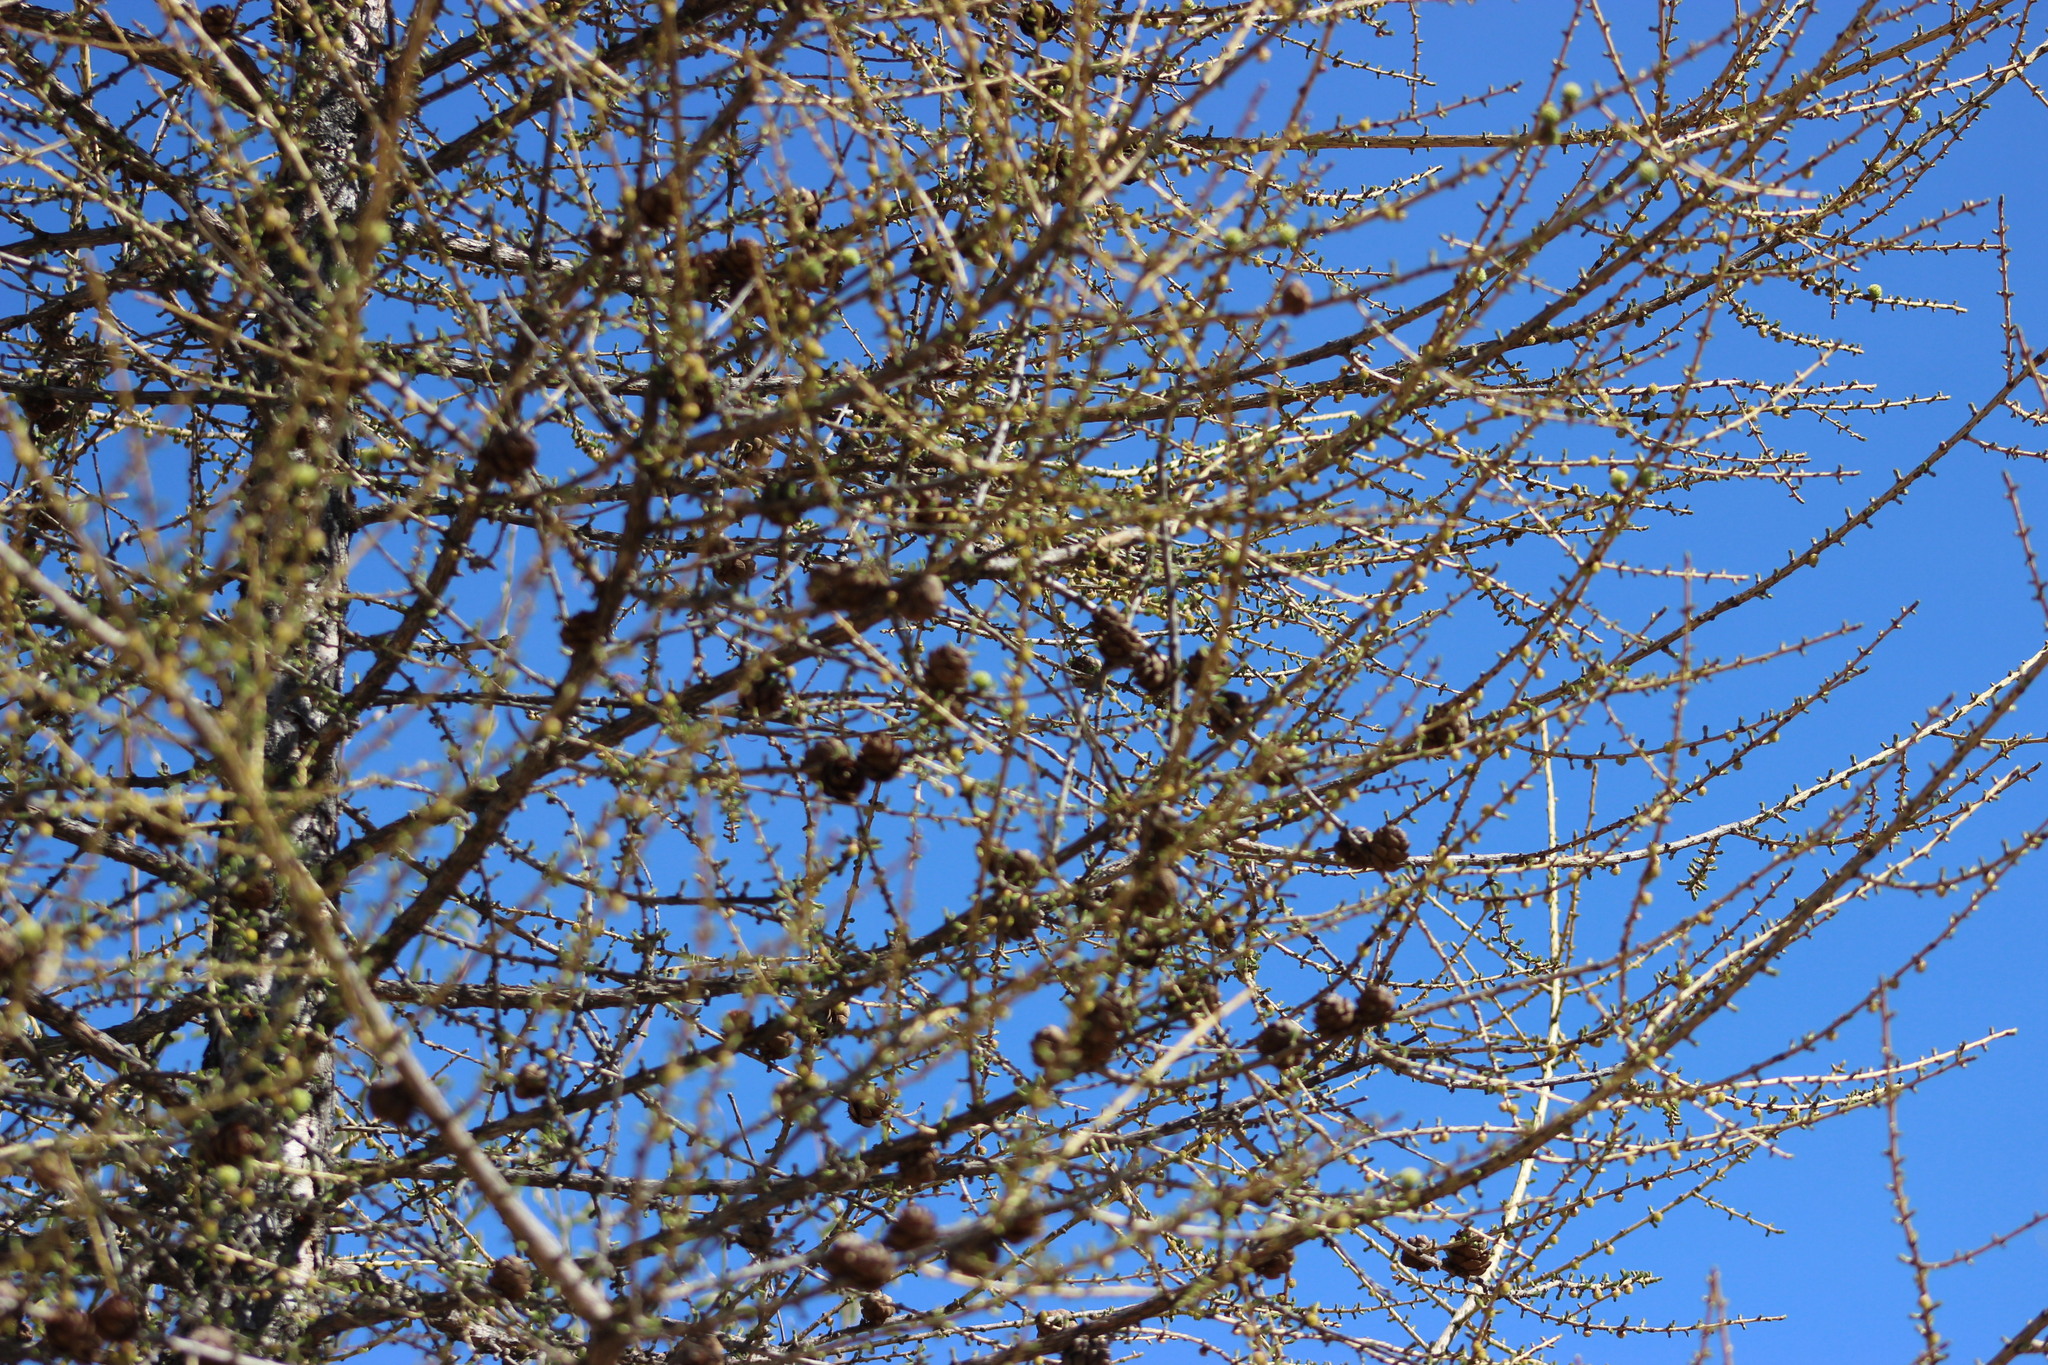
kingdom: Plantae
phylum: Tracheophyta
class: Pinopsida
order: Pinales
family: Pinaceae
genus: Larix
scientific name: Larix sibirica
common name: Siberian larch
